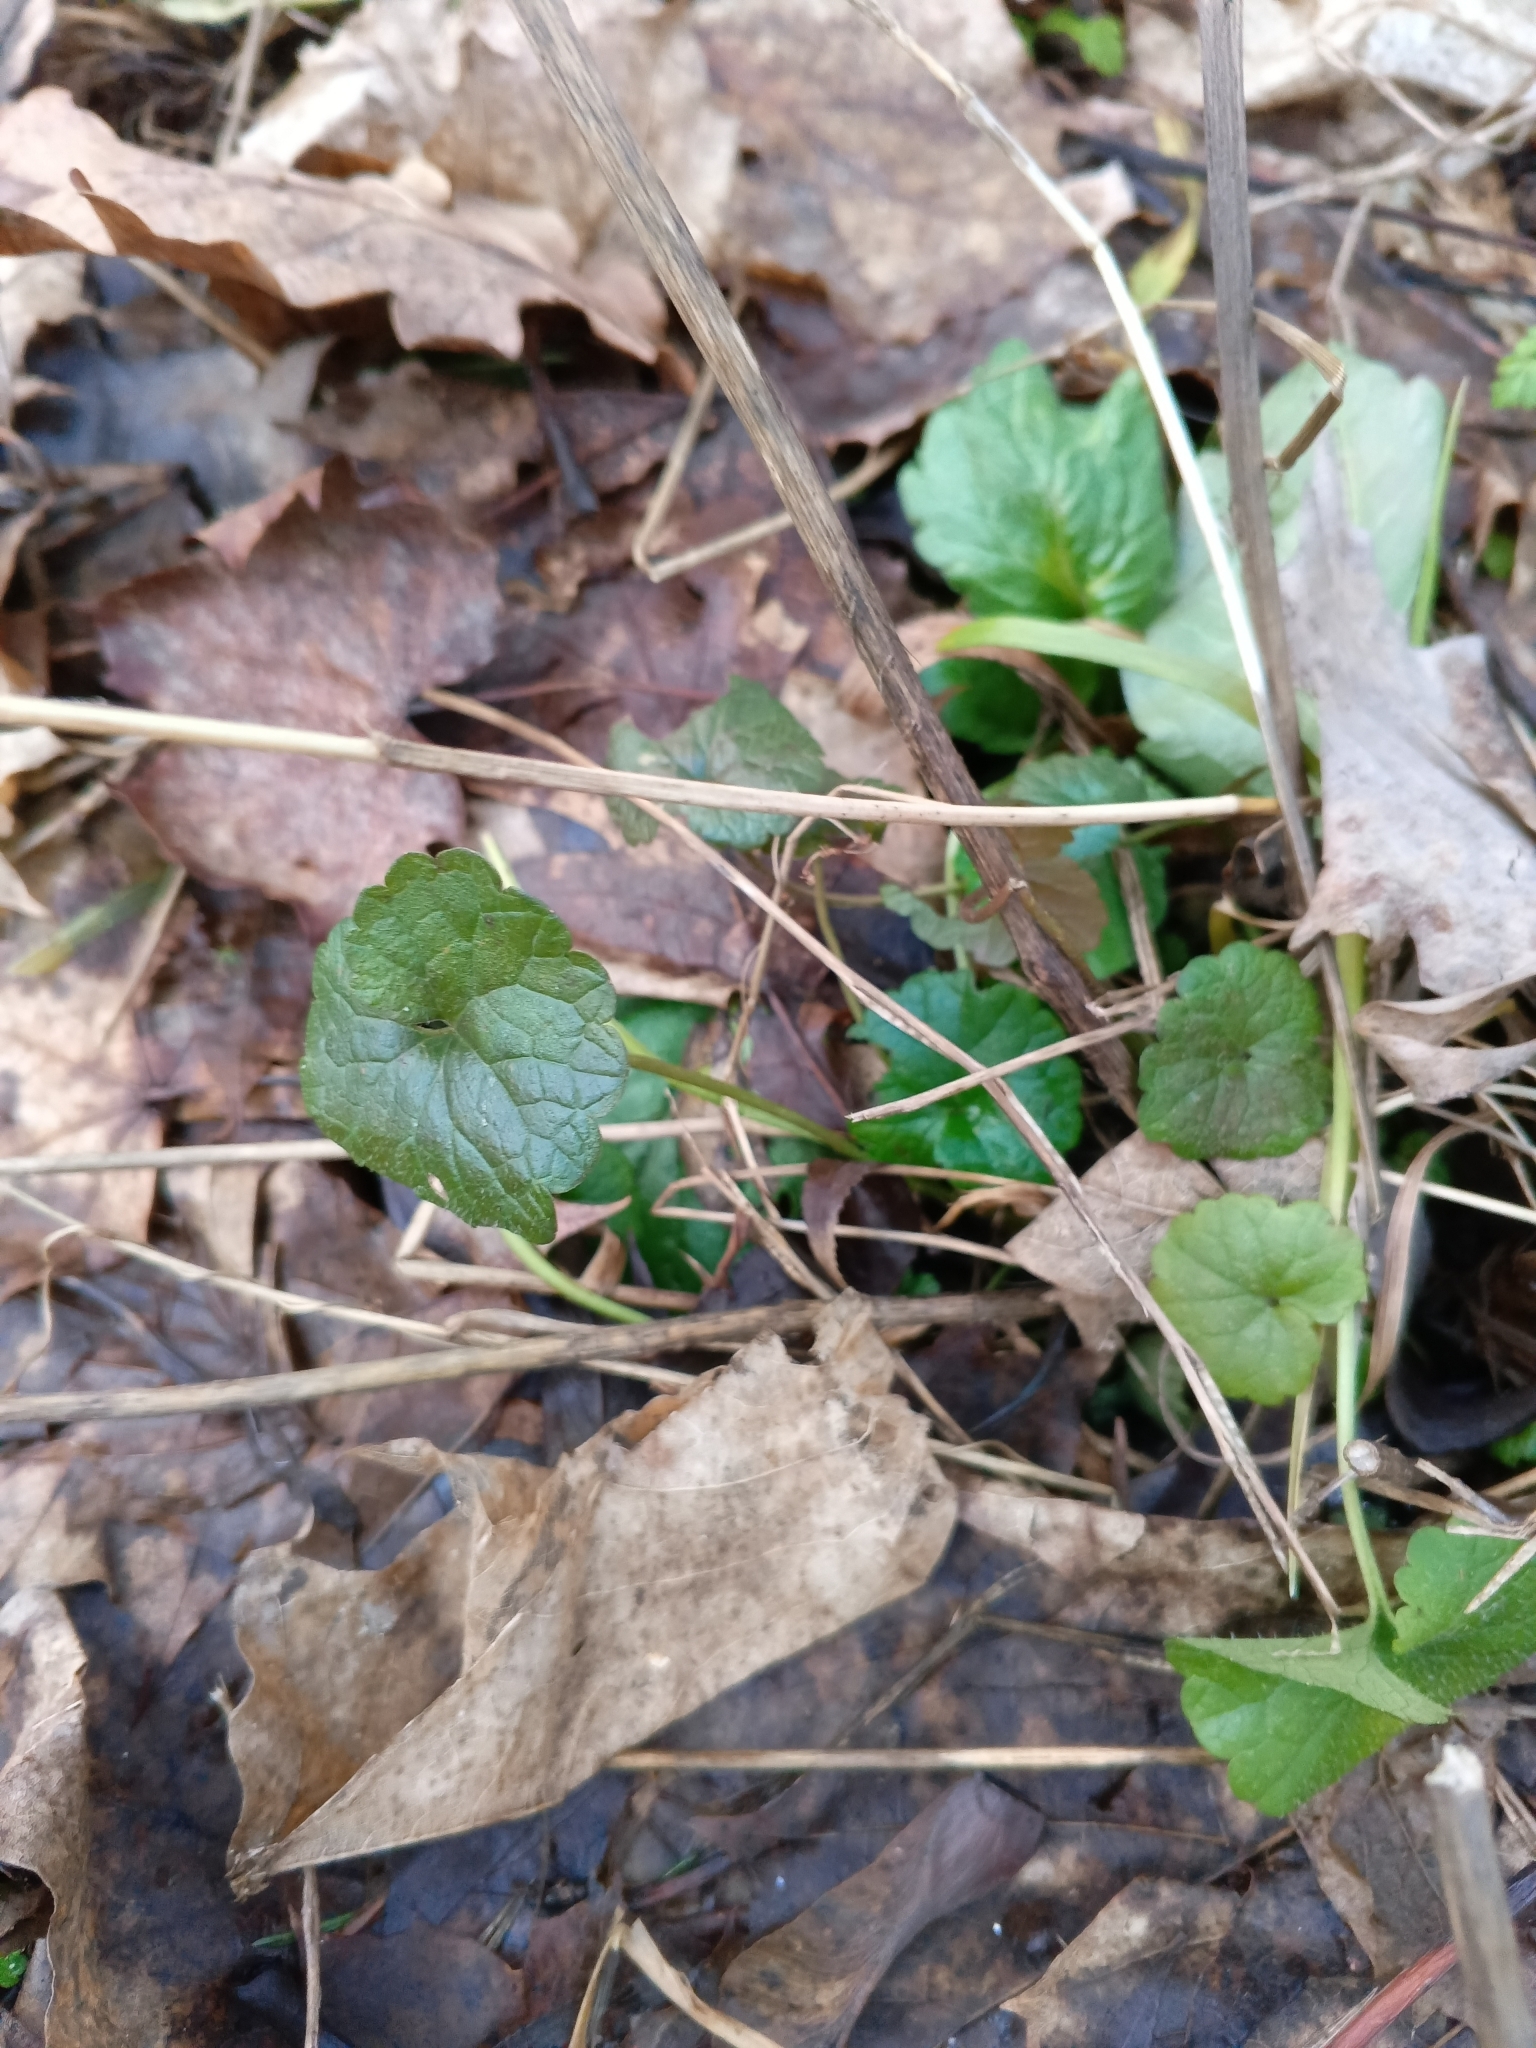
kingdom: Plantae
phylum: Tracheophyta
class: Magnoliopsida
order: Lamiales
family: Lamiaceae
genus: Glechoma
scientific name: Glechoma hederacea
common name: Ground ivy
